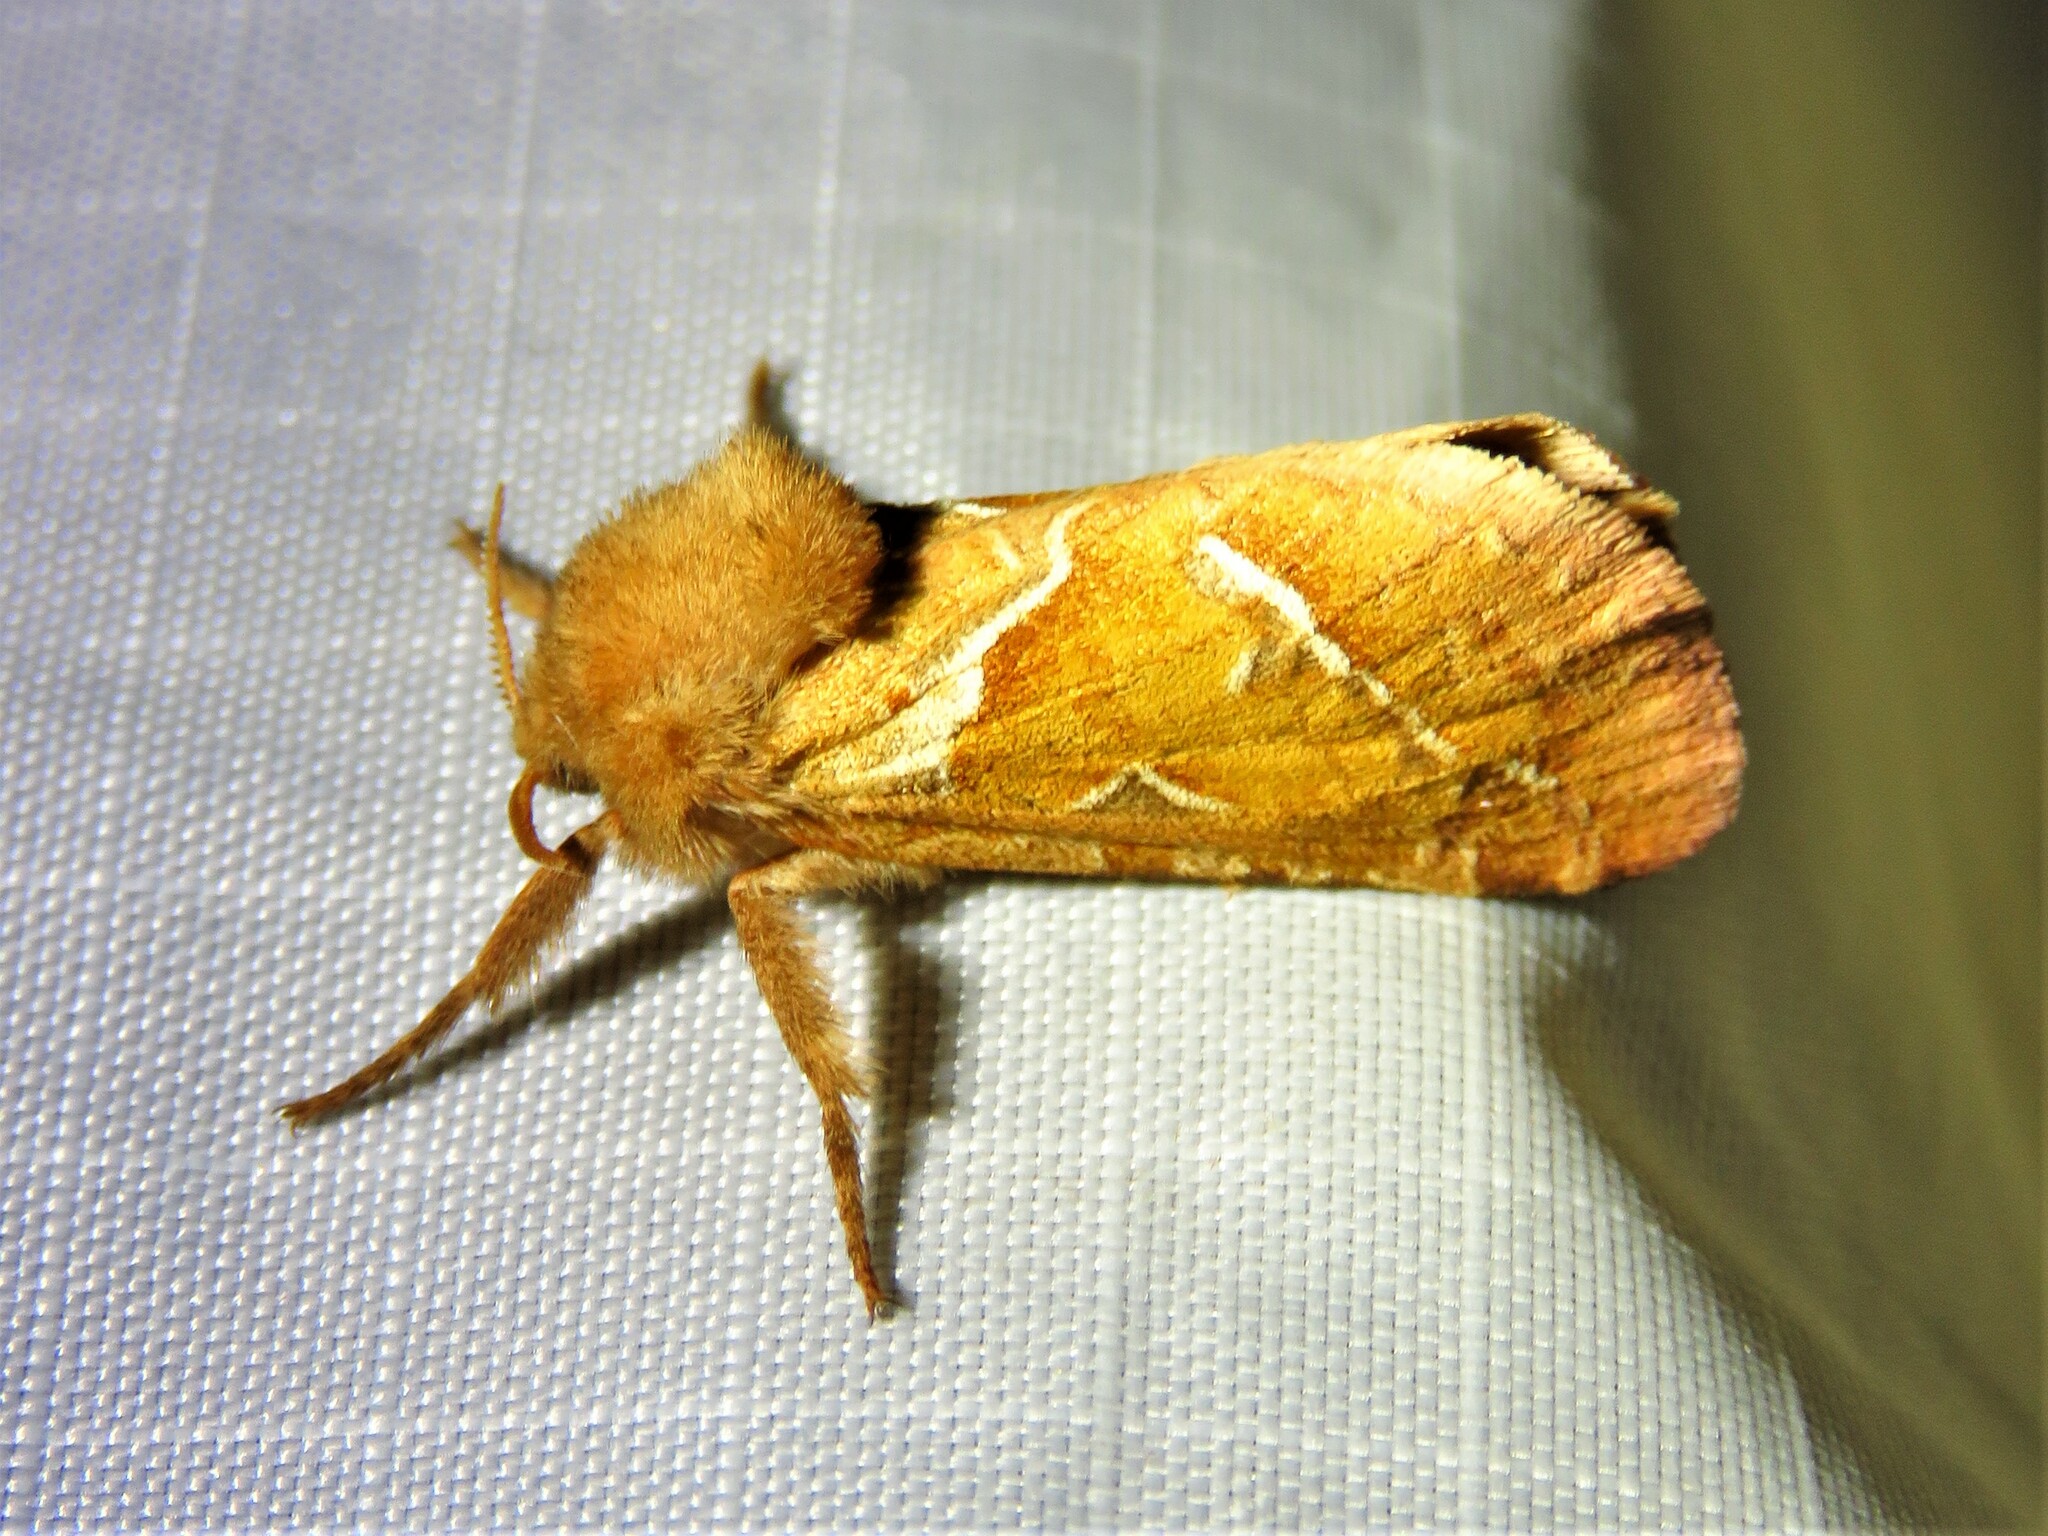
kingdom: Animalia
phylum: Arthropoda
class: Insecta
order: Lepidoptera
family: Hepialidae
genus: Triodia
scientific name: Triodia sylvina
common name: Orange swift
